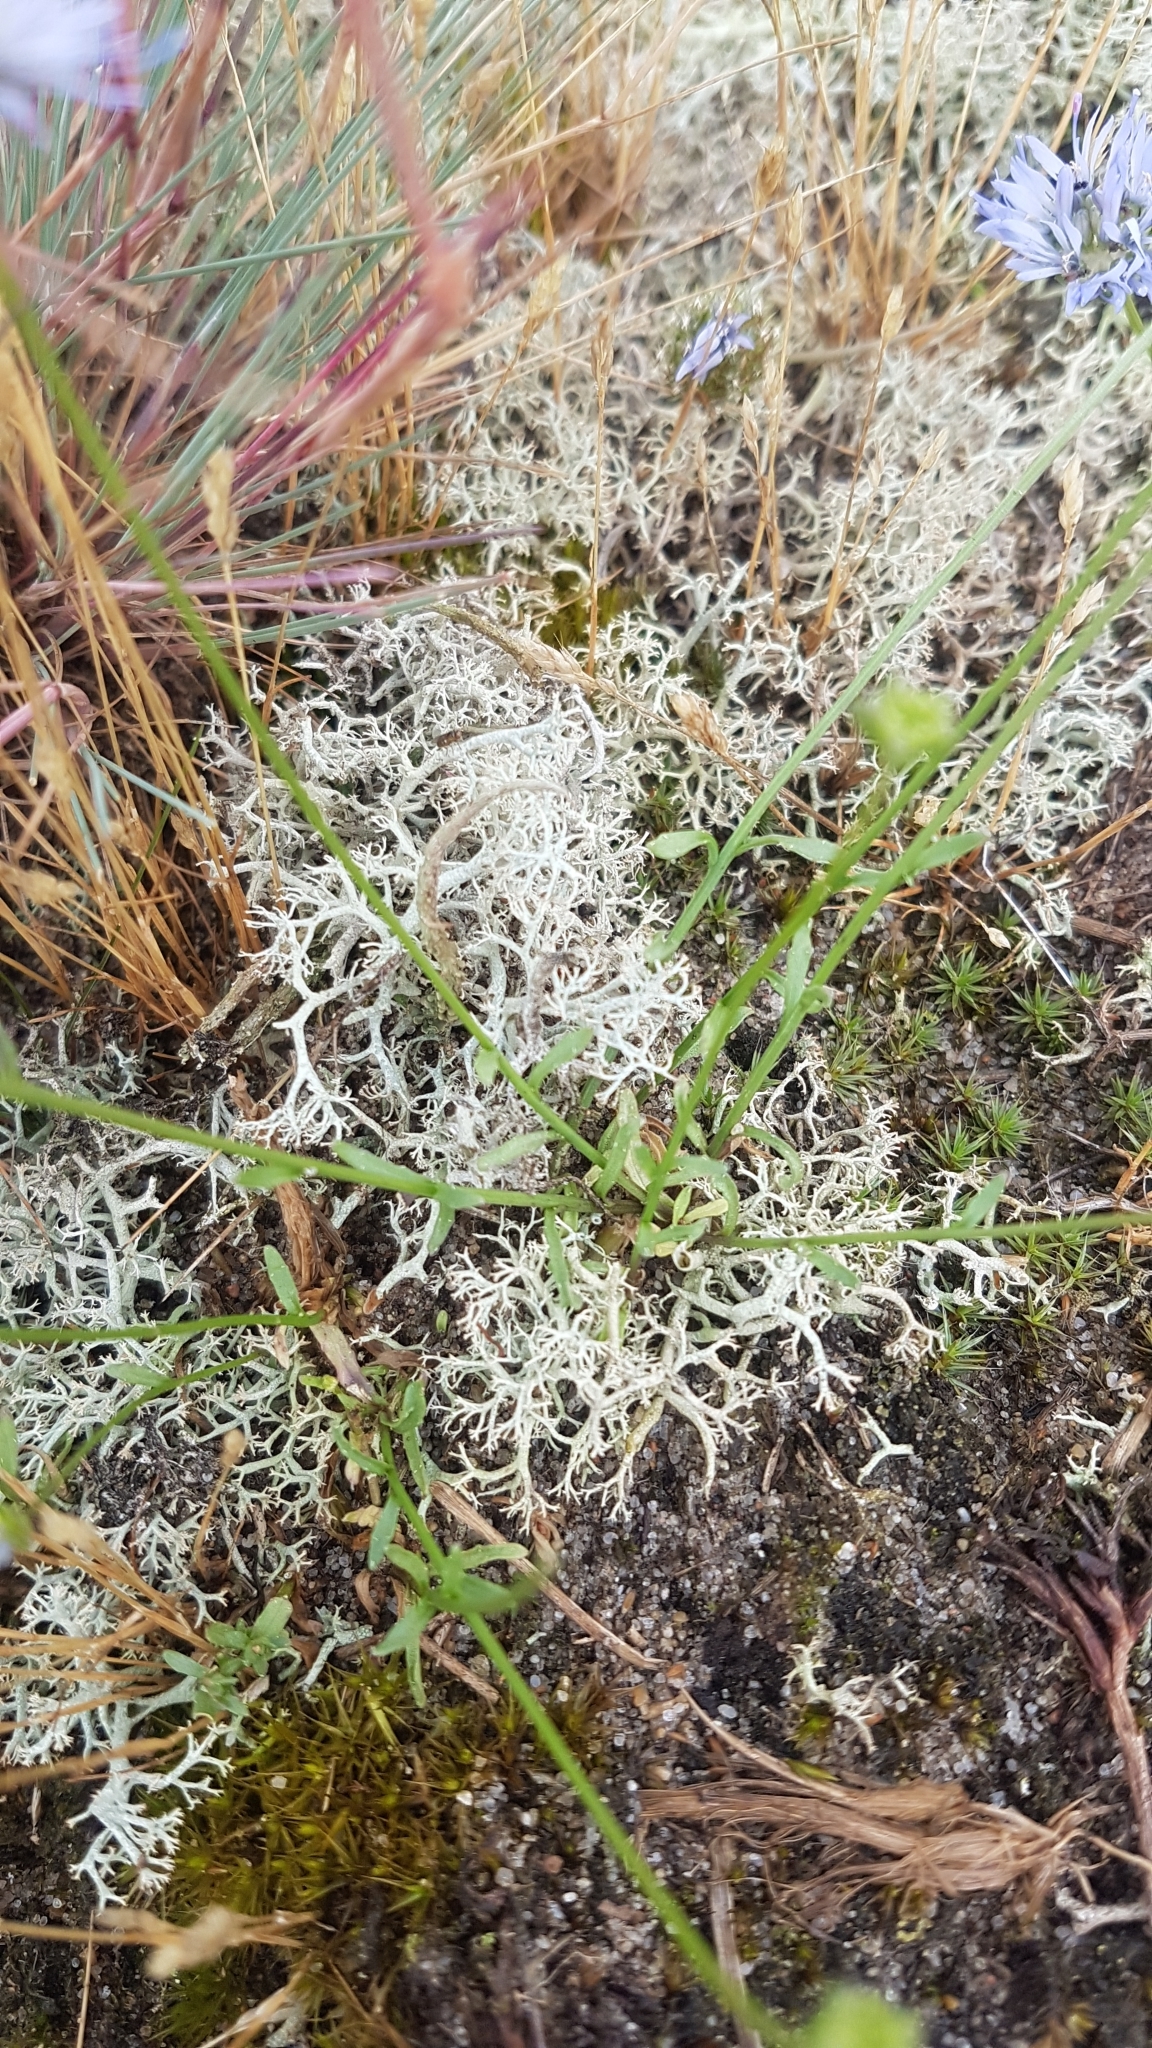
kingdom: Plantae
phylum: Tracheophyta
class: Magnoliopsida
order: Asterales
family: Campanulaceae
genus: Jasione
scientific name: Jasione montana
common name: Sheep's-bit
